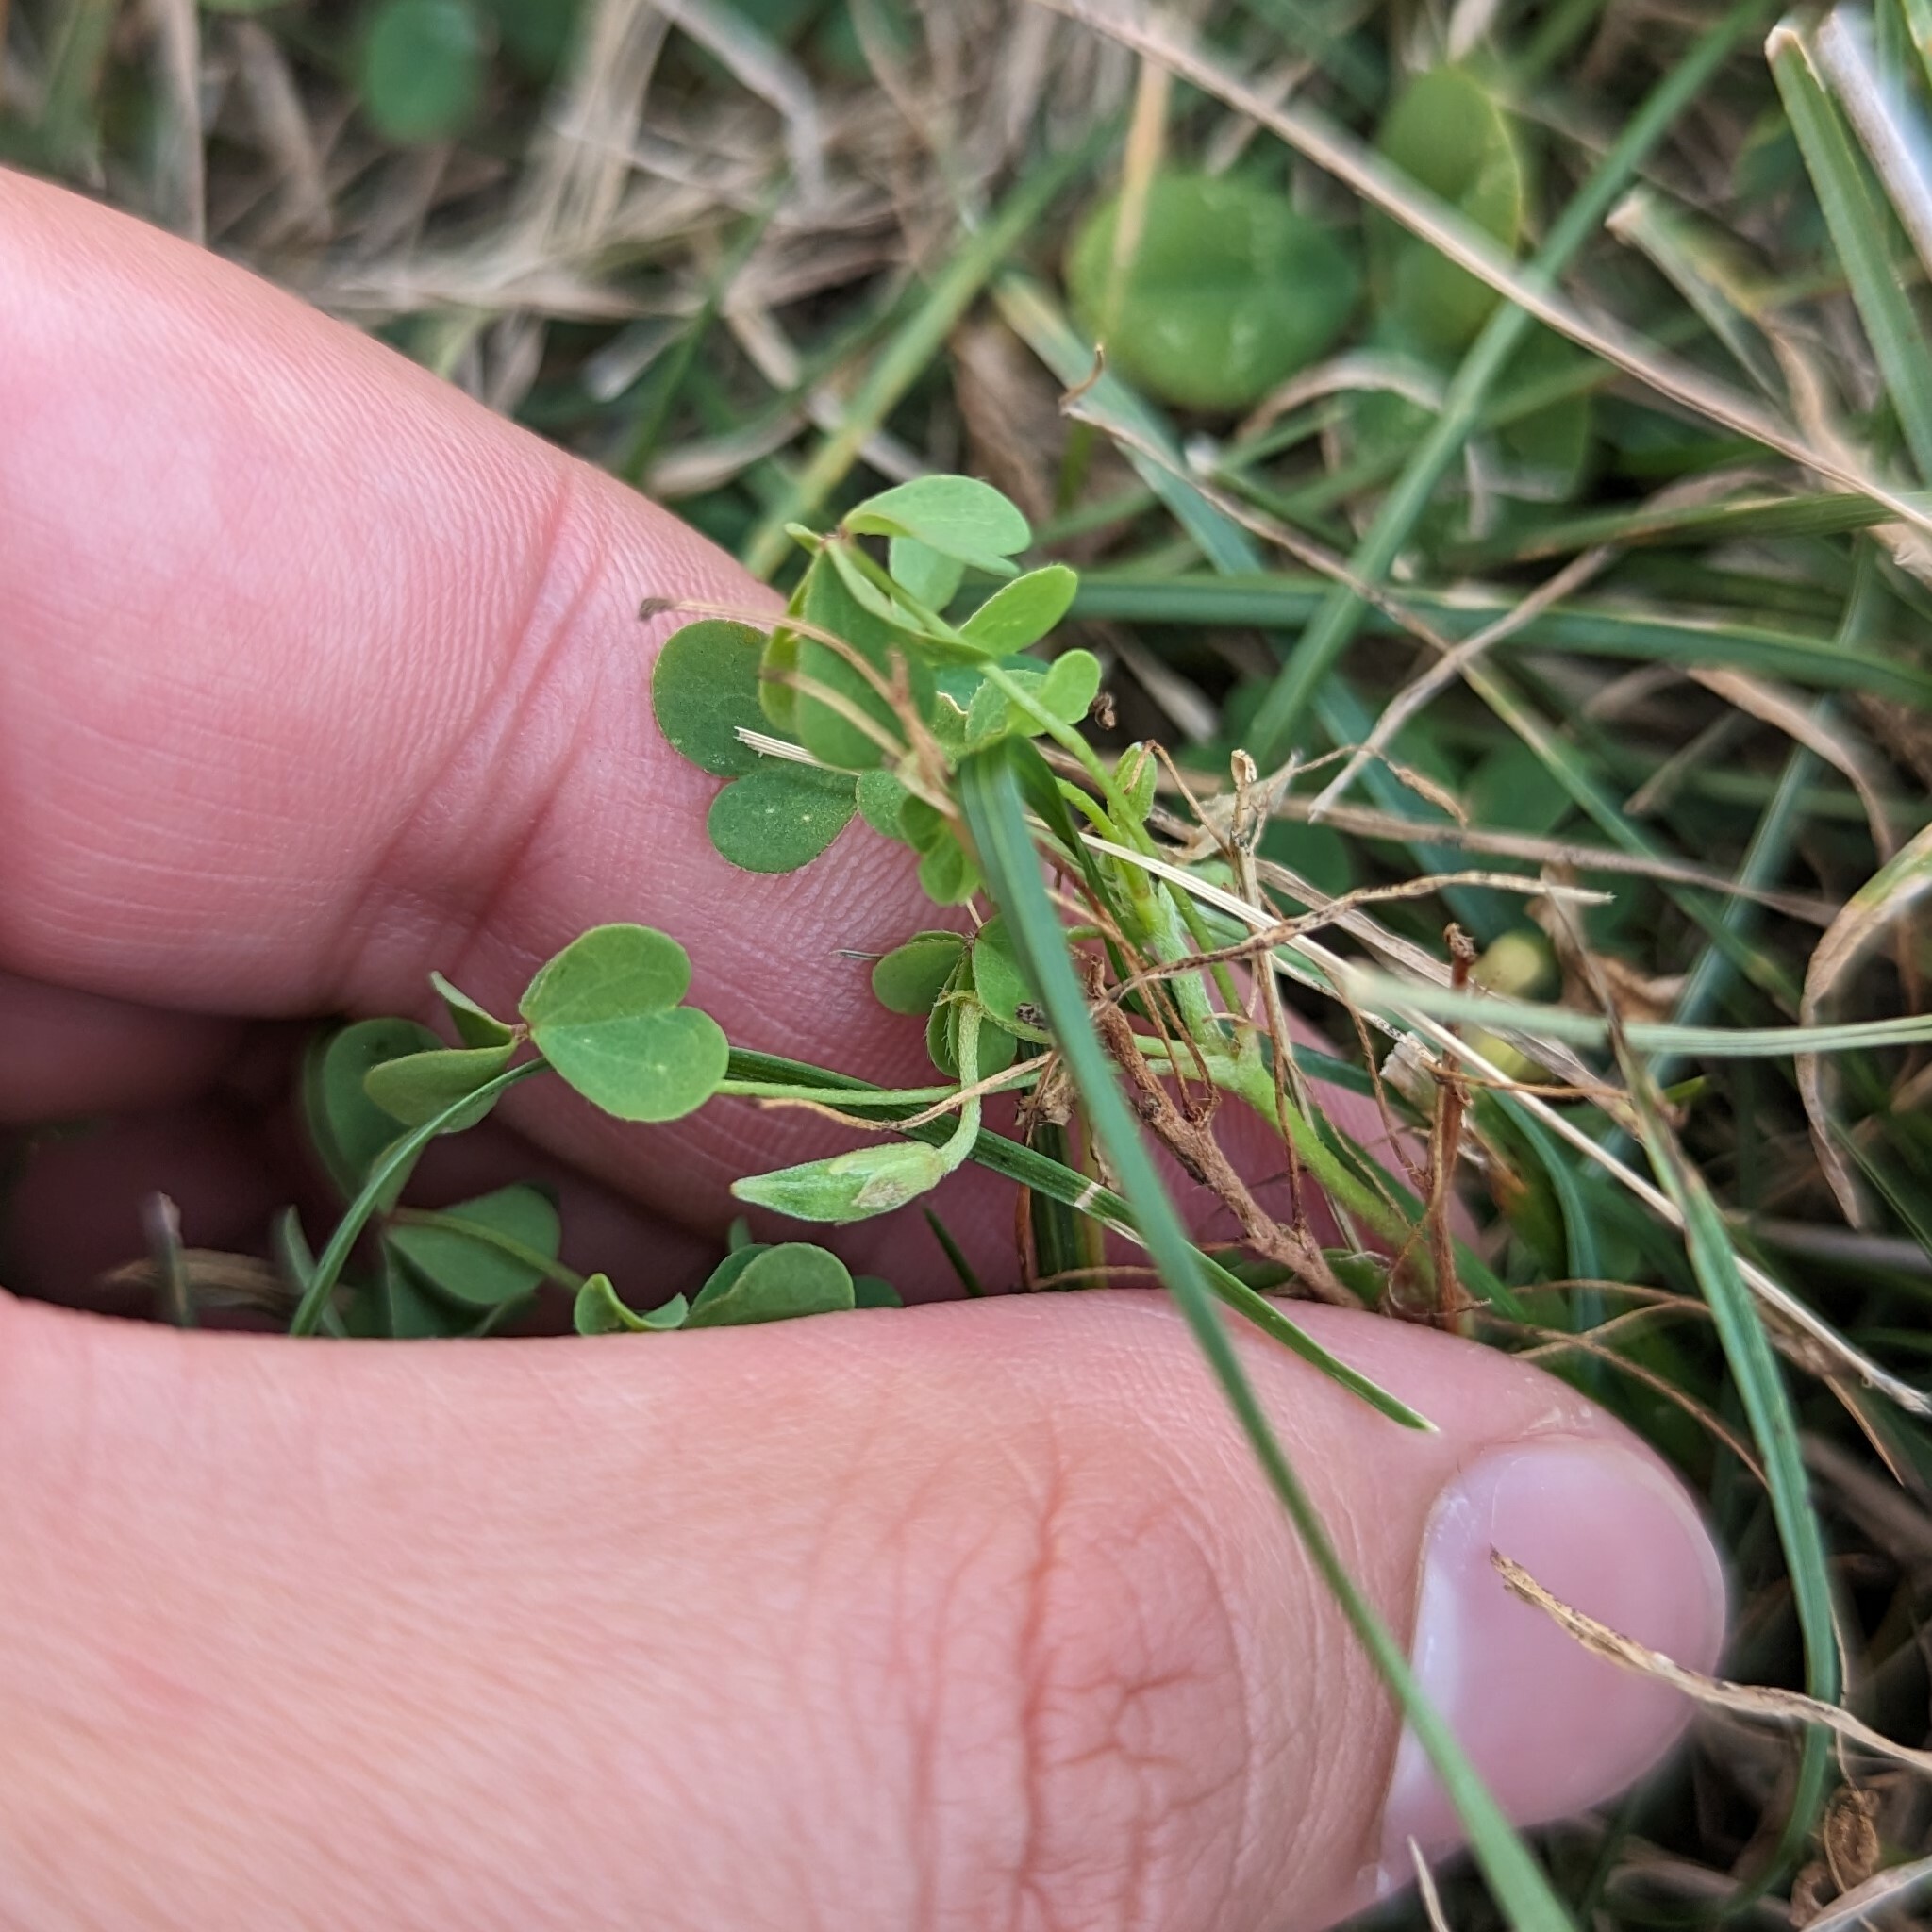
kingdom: Plantae
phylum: Tracheophyta
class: Magnoliopsida
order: Oxalidales
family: Oxalidaceae
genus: Oxalis
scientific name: Oxalis dillenii
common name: Sussex yellow-sorrel
